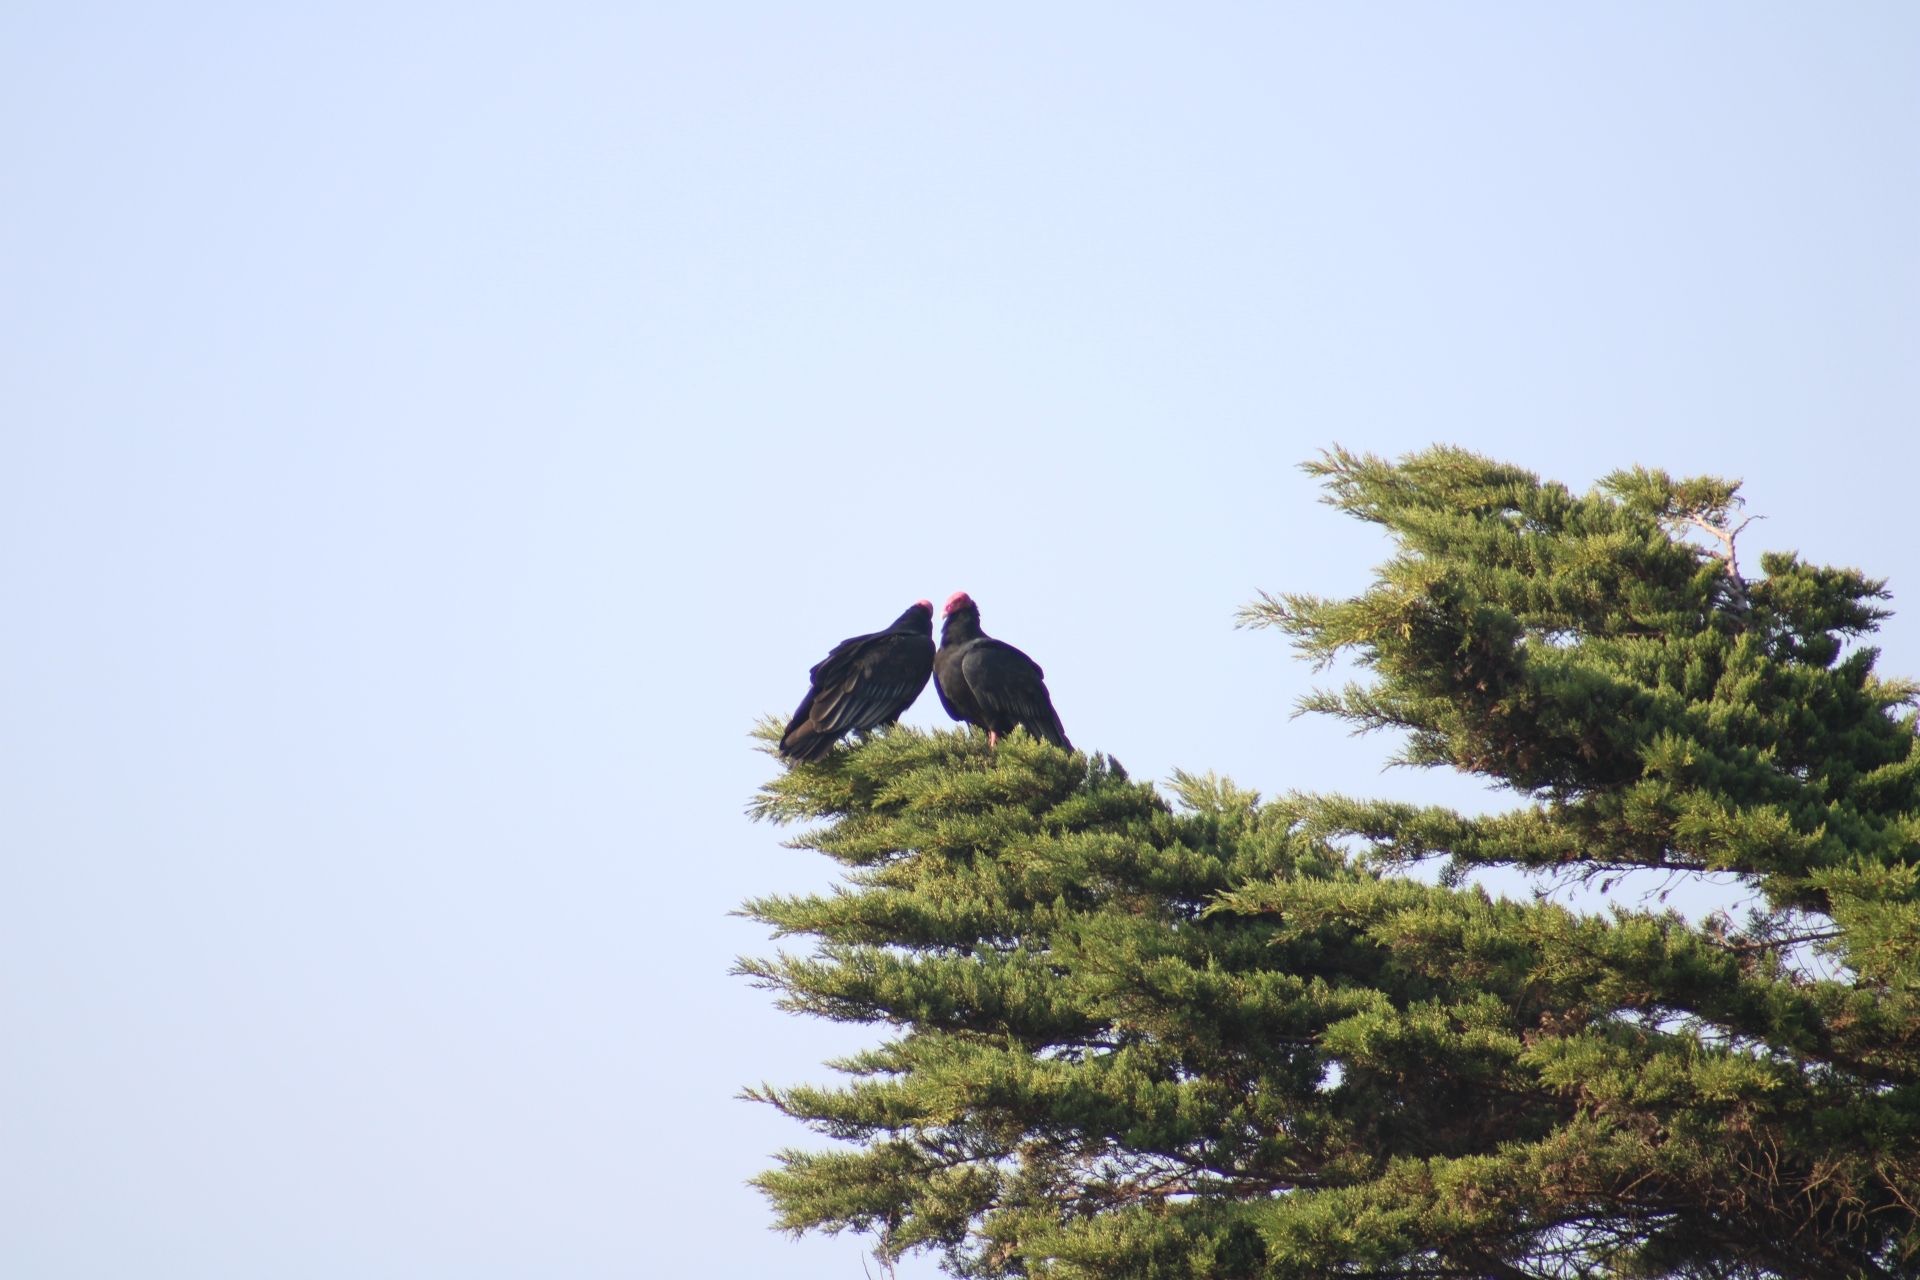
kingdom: Animalia
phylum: Chordata
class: Aves
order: Accipitriformes
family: Cathartidae
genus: Cathartes
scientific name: Cathartes aura
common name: Turkey vulture
